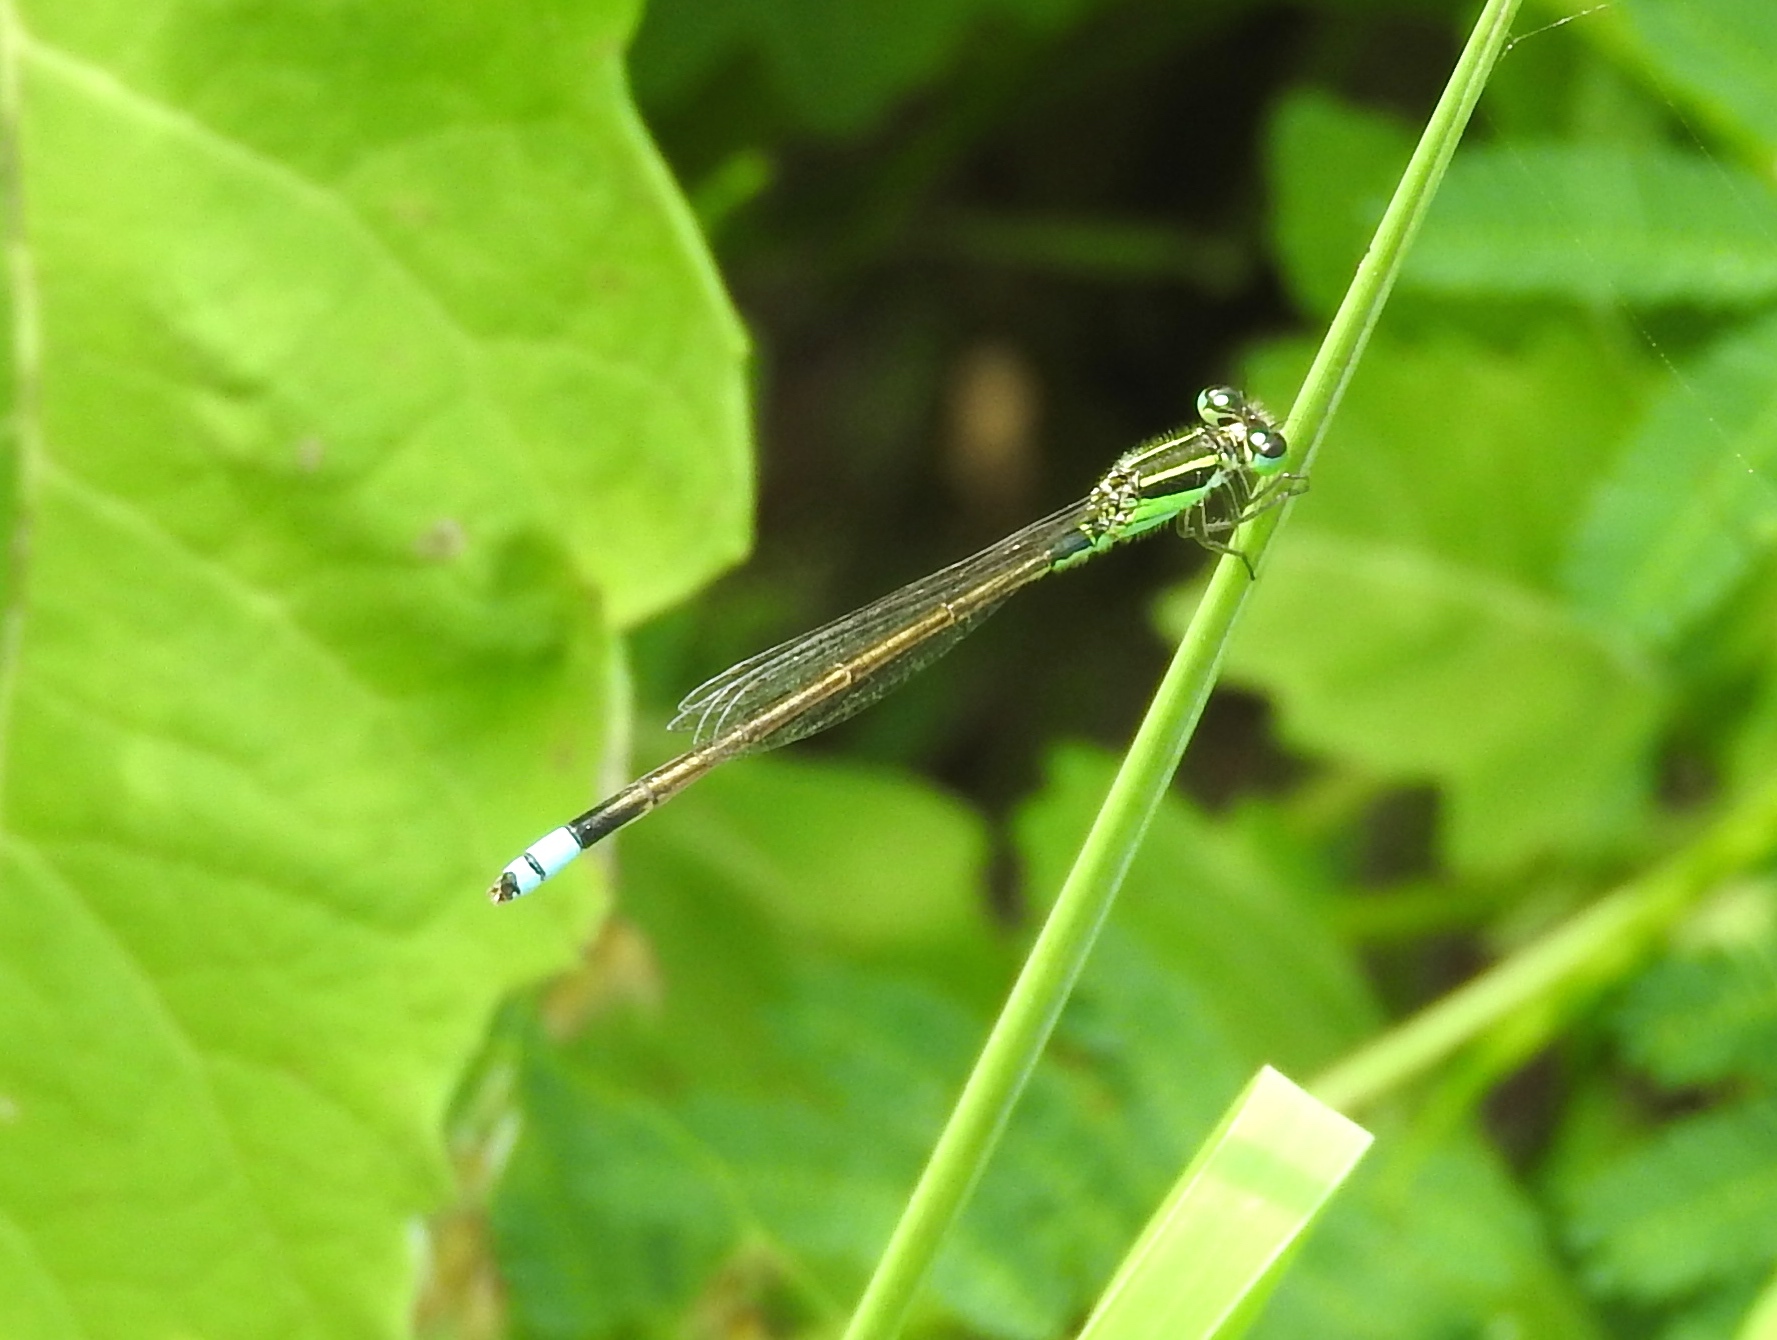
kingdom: Animalia
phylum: Arthropoda
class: Insecta
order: Odonata
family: Coenagrionidae
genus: Ischnura
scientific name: Ischnura ramburii
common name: Rambur's forktail
